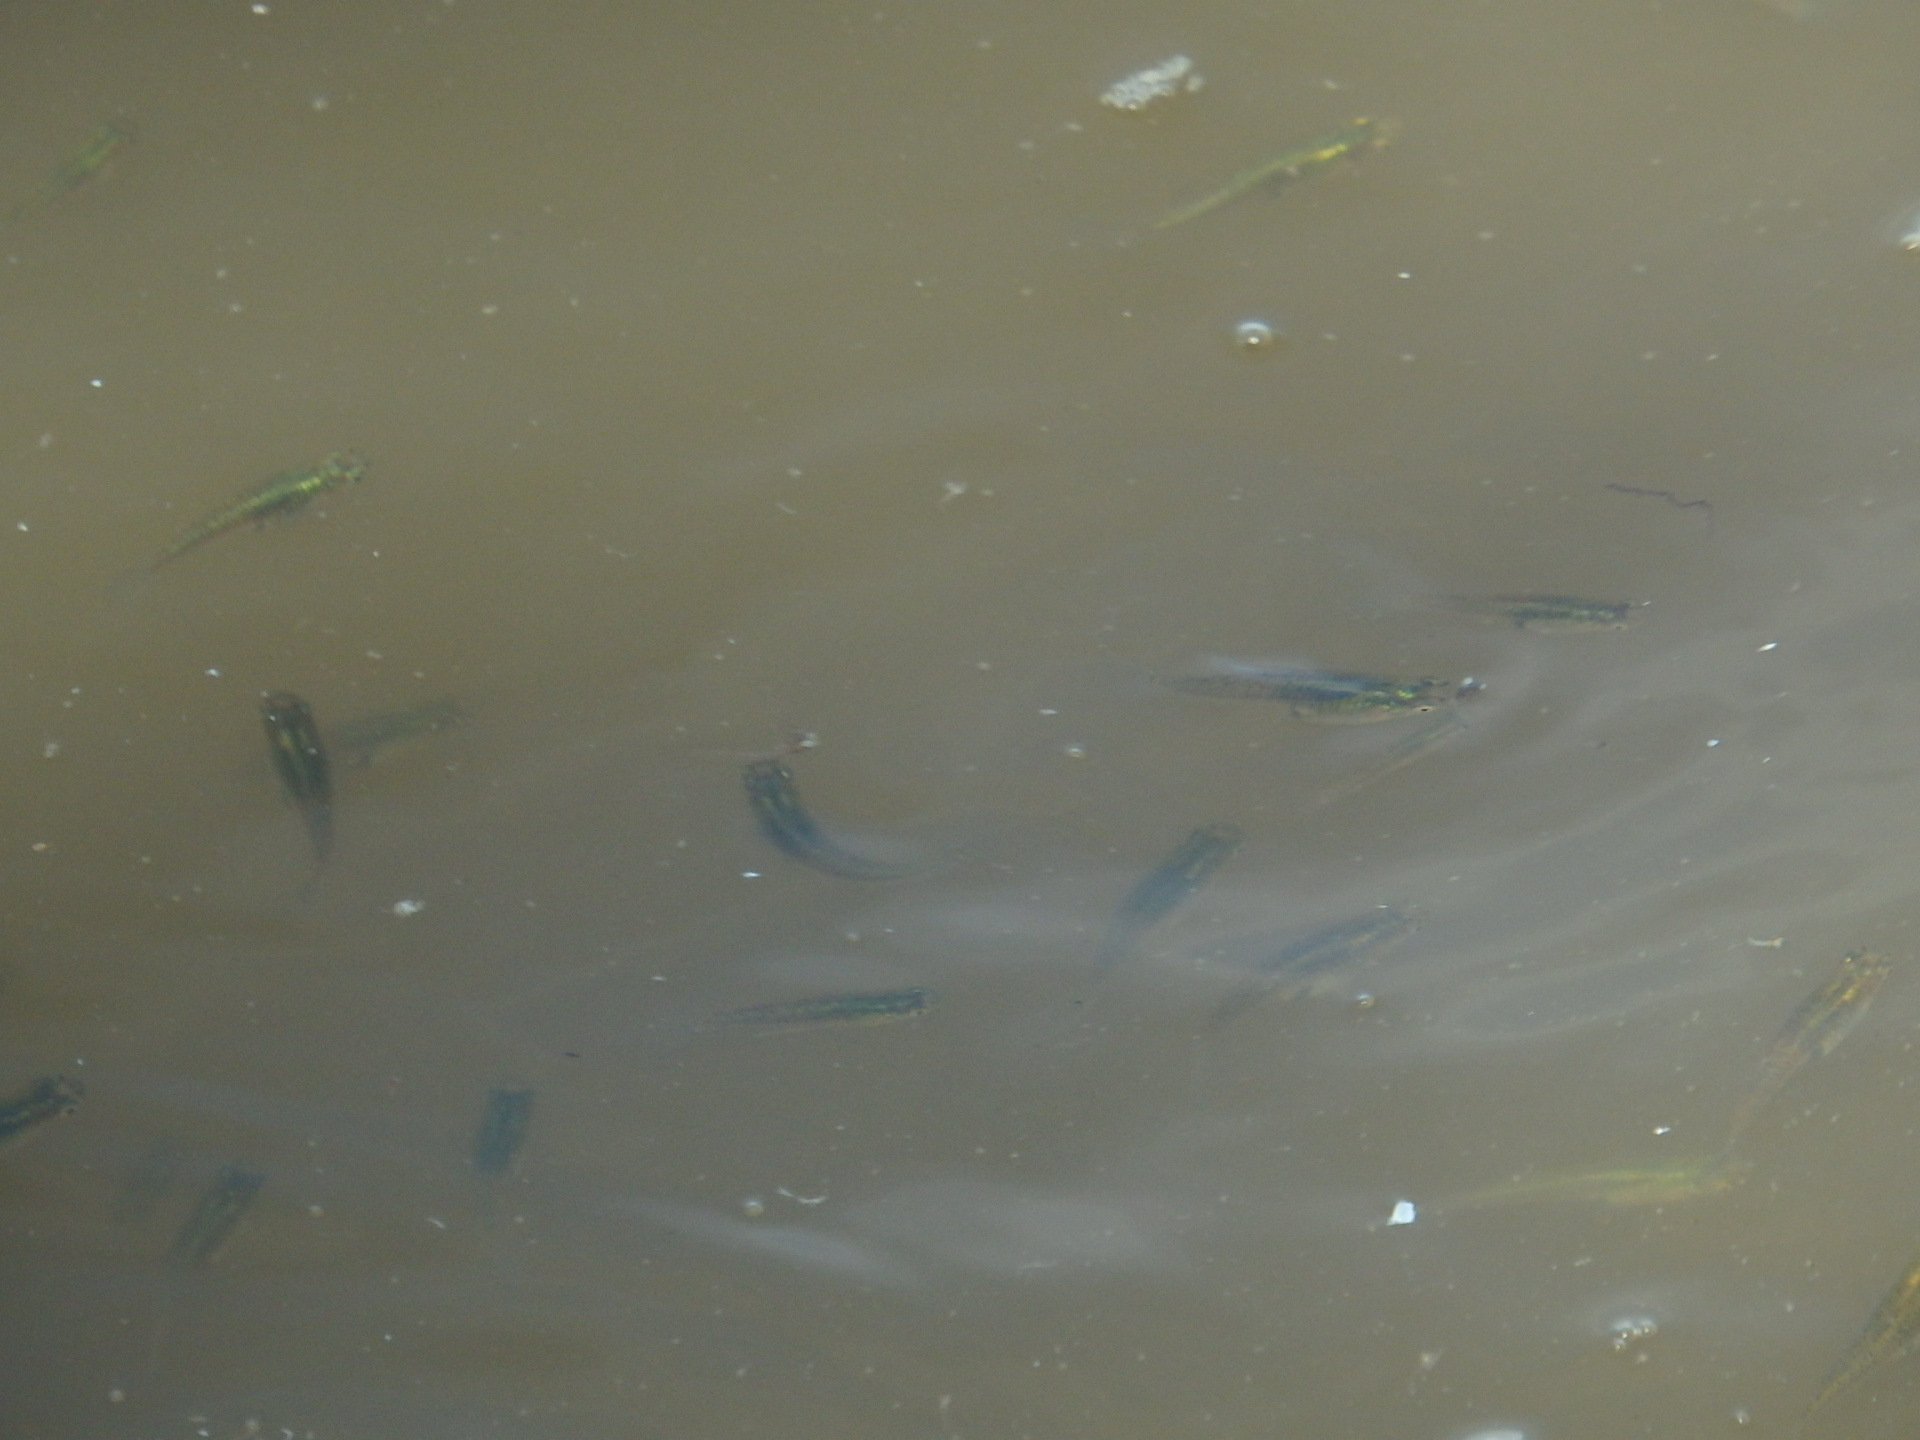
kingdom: Animalia
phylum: Chordata
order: Cyprinodontiformes
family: Poeciliidae
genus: Gambusia
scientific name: Gambusia holbrooki
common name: Eastern mosquitofish
